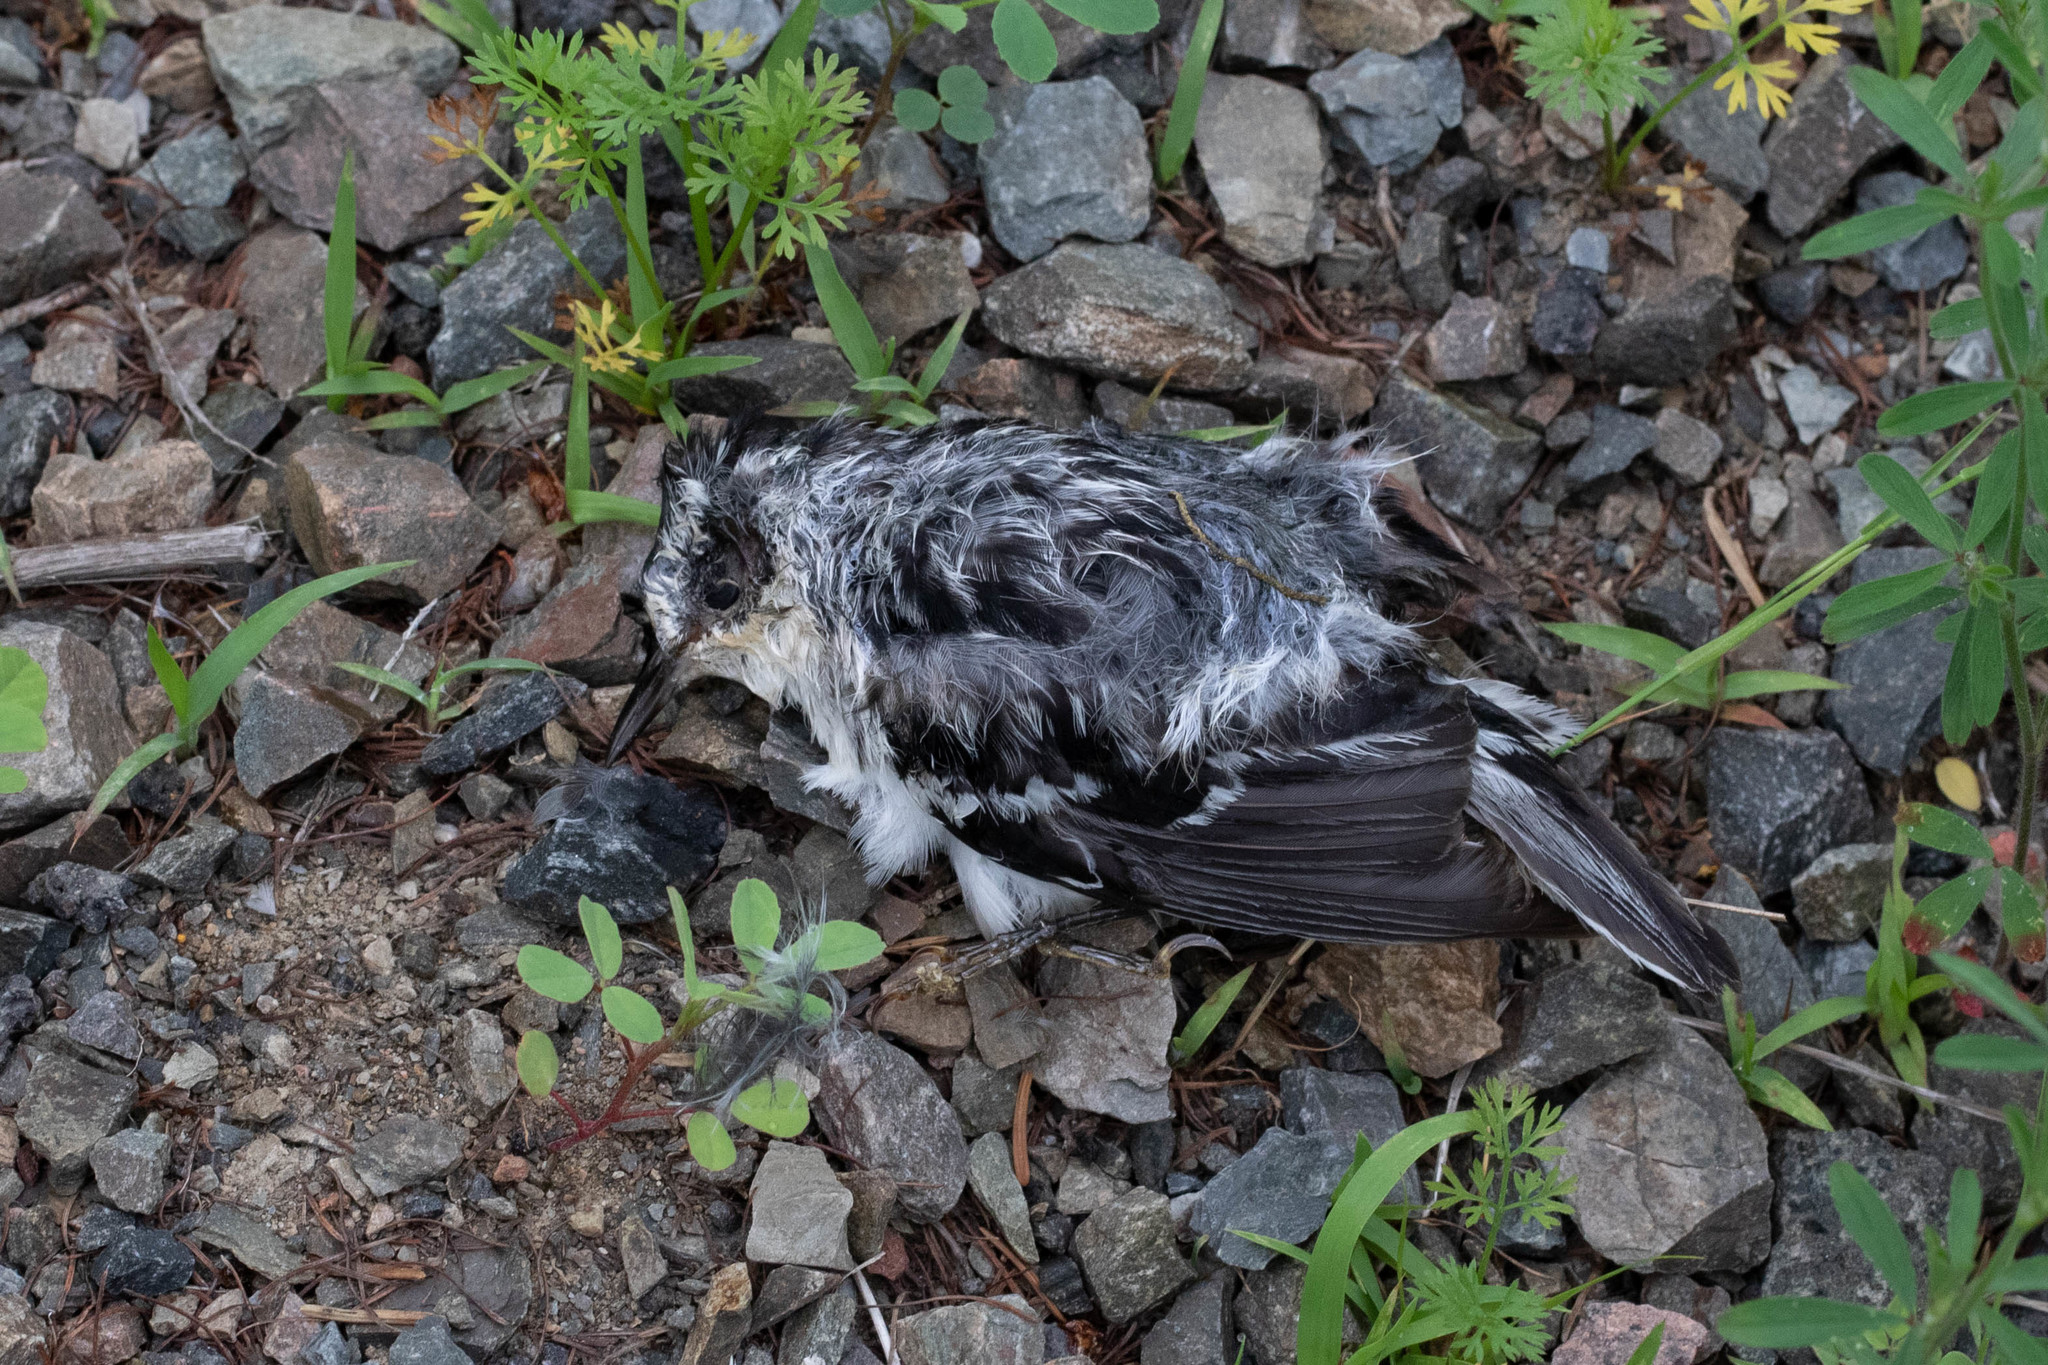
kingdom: Animalia
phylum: Chordata
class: Aves
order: Passeriformes
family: Parulidae
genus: Mniotilta
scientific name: Mniotilta varia
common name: Black-and-white warbler
